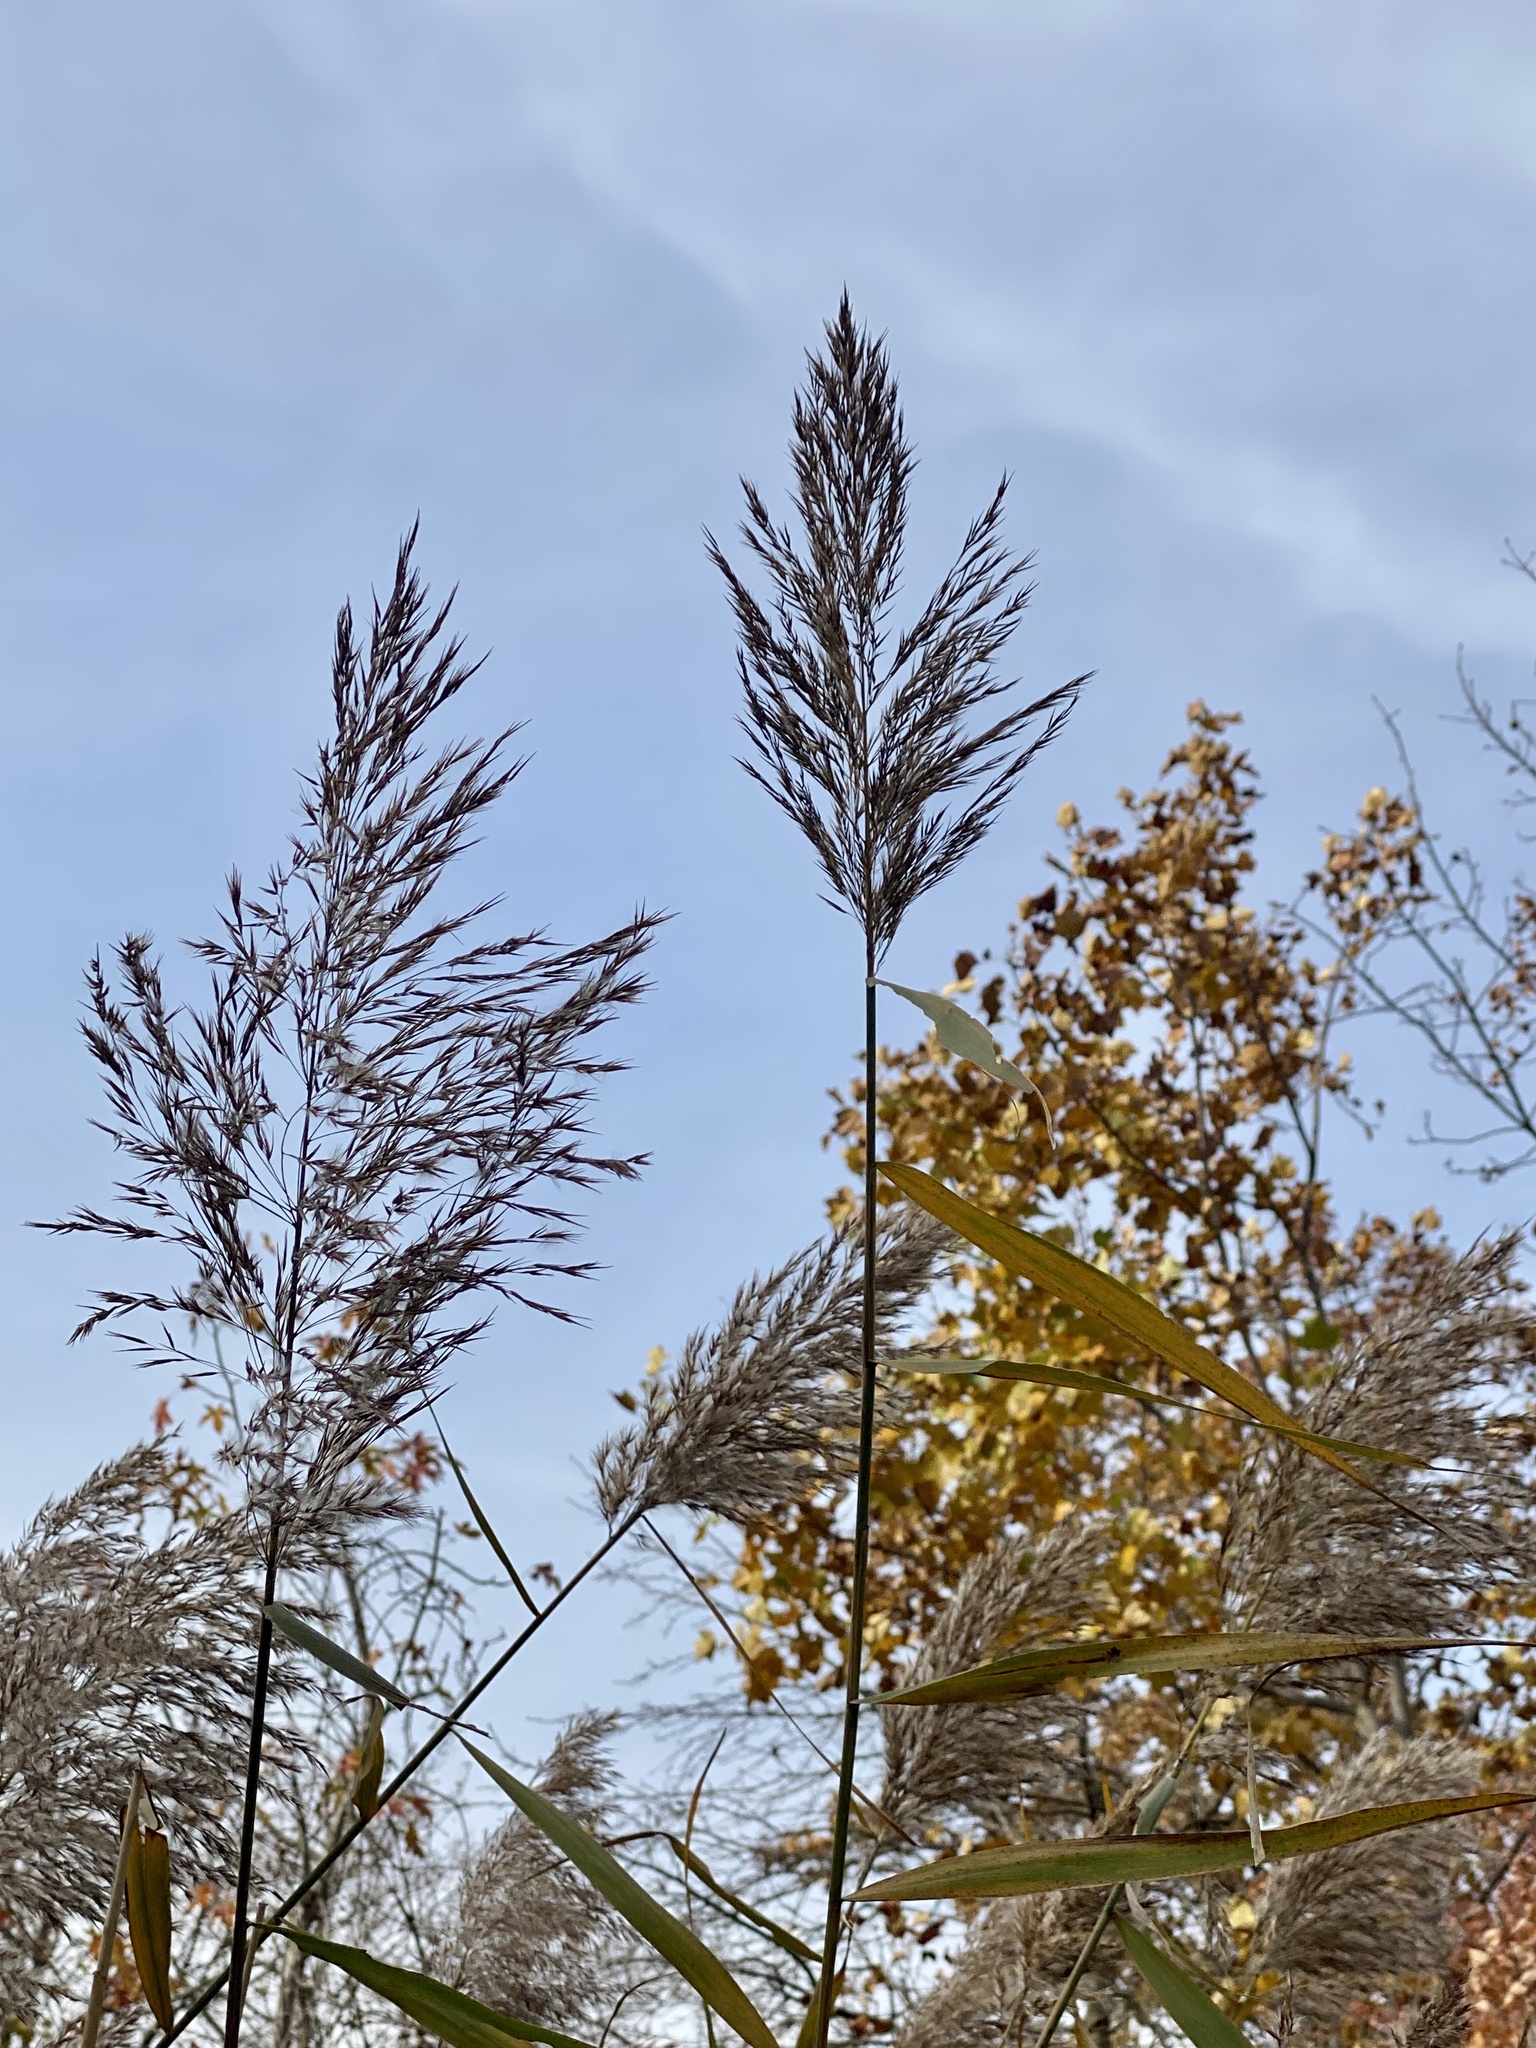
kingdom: Plantae
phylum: Tracheophyta
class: Liliopsida
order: Poales
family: Poaceae
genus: Phragmites
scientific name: Phragmites australis
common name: Common reed
